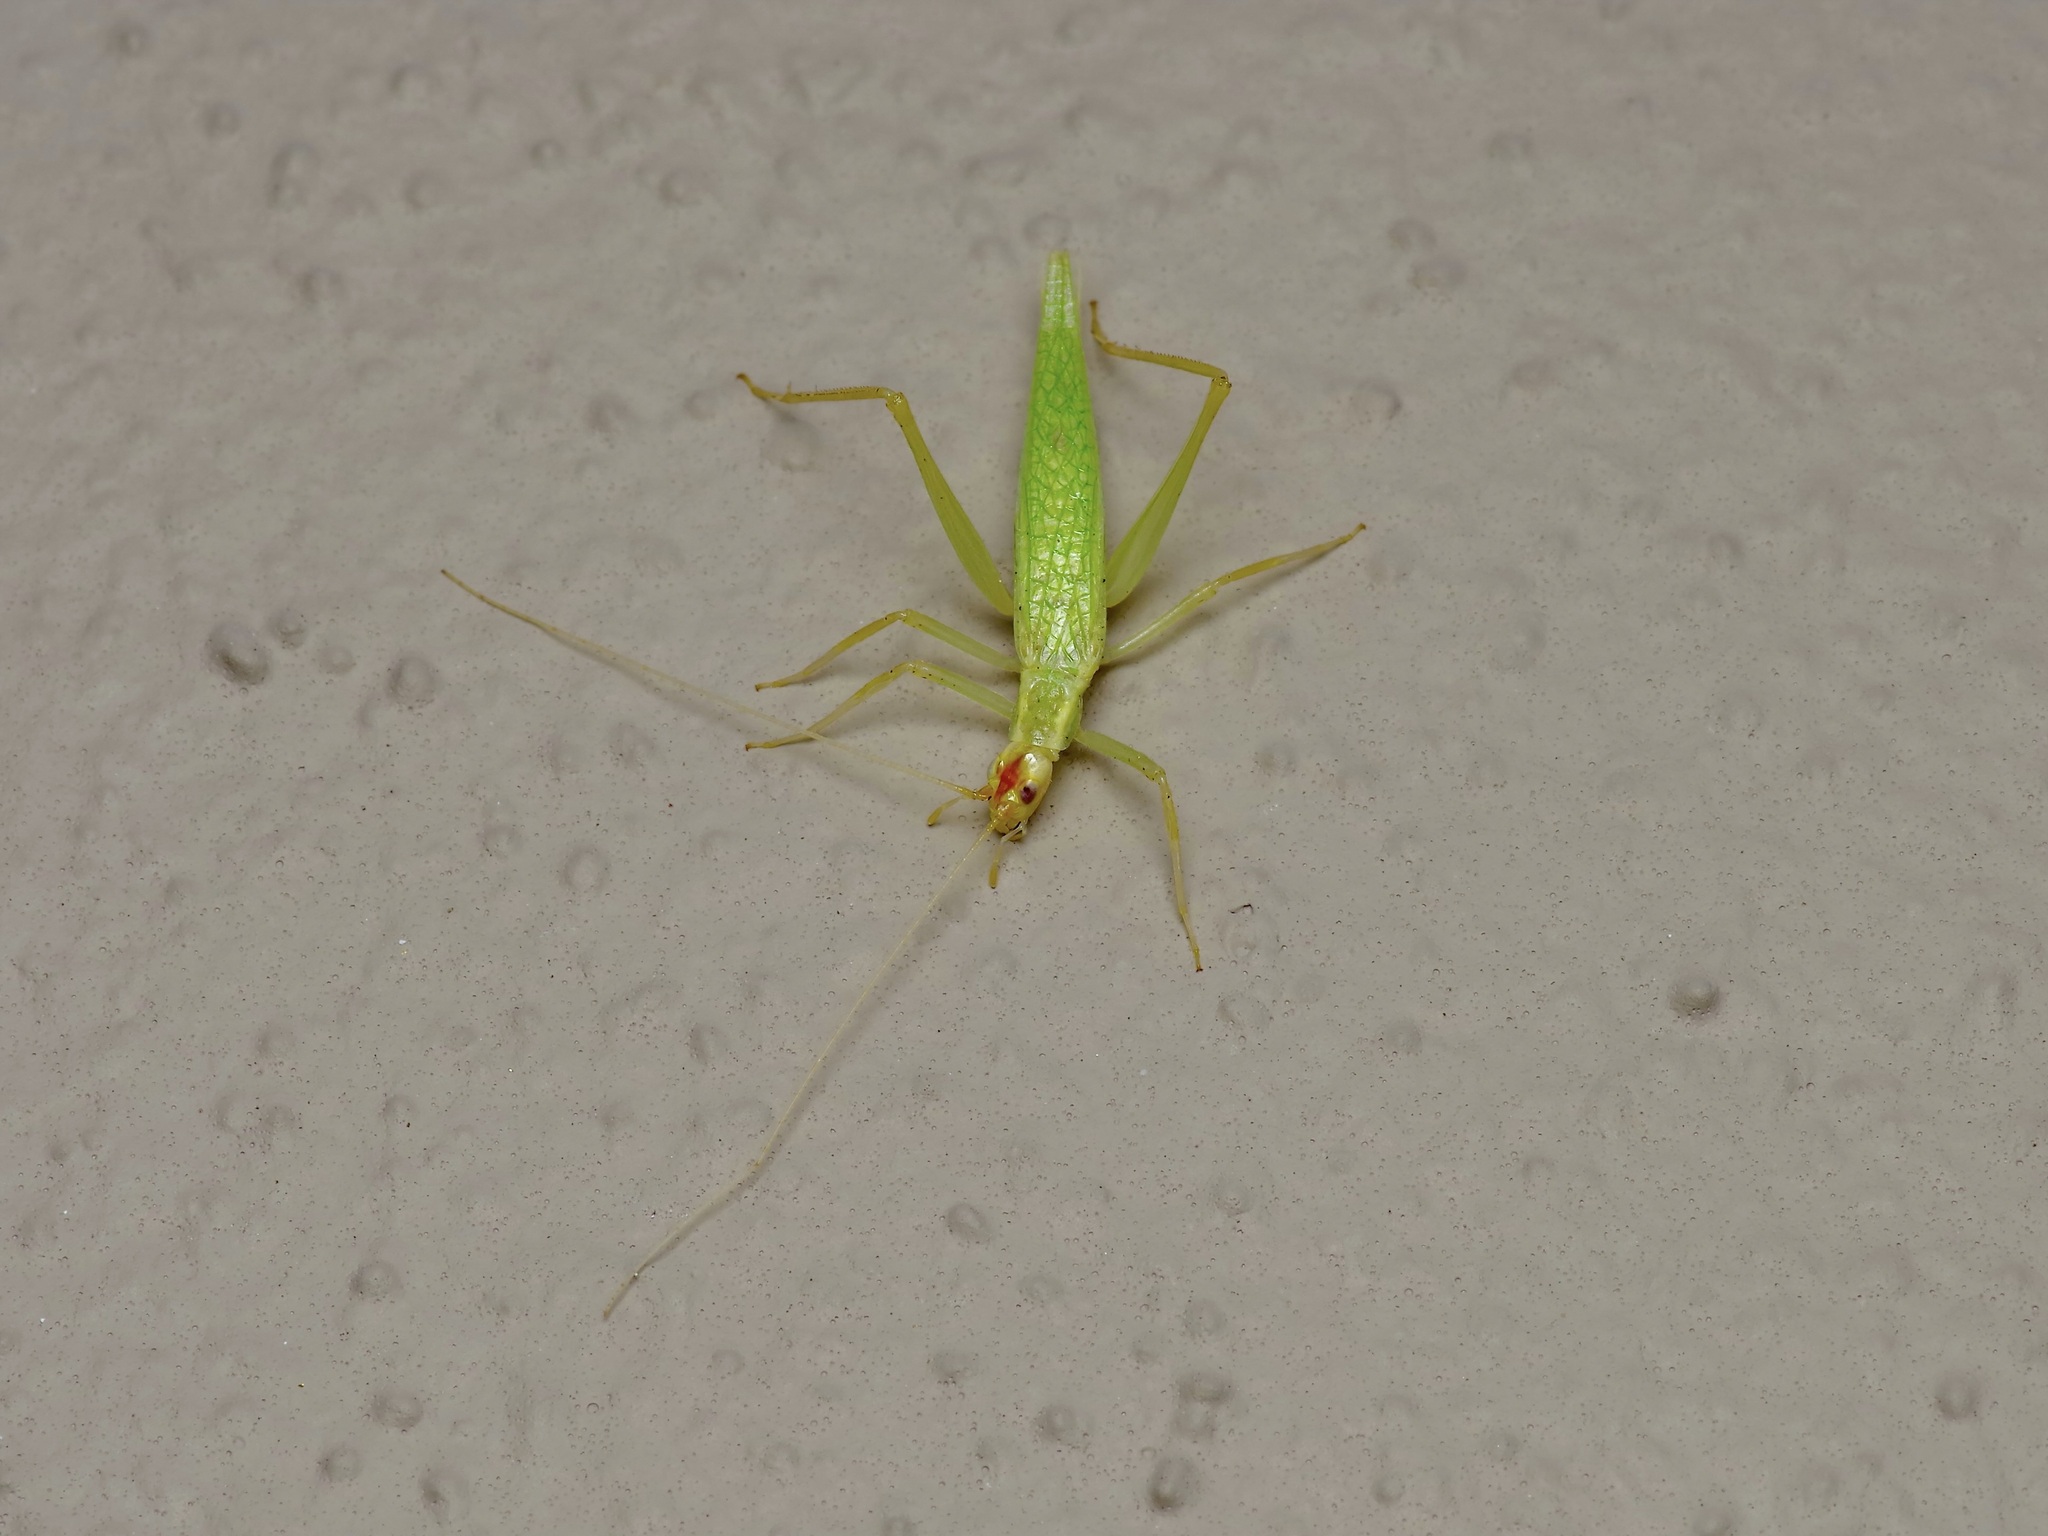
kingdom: Animalia
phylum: Arthropoda
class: Insecta
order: Orthoptera
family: Gryllidae
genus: Oecanthus
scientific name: Oecanthus niveus
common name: Narrow-winged tree cricket
